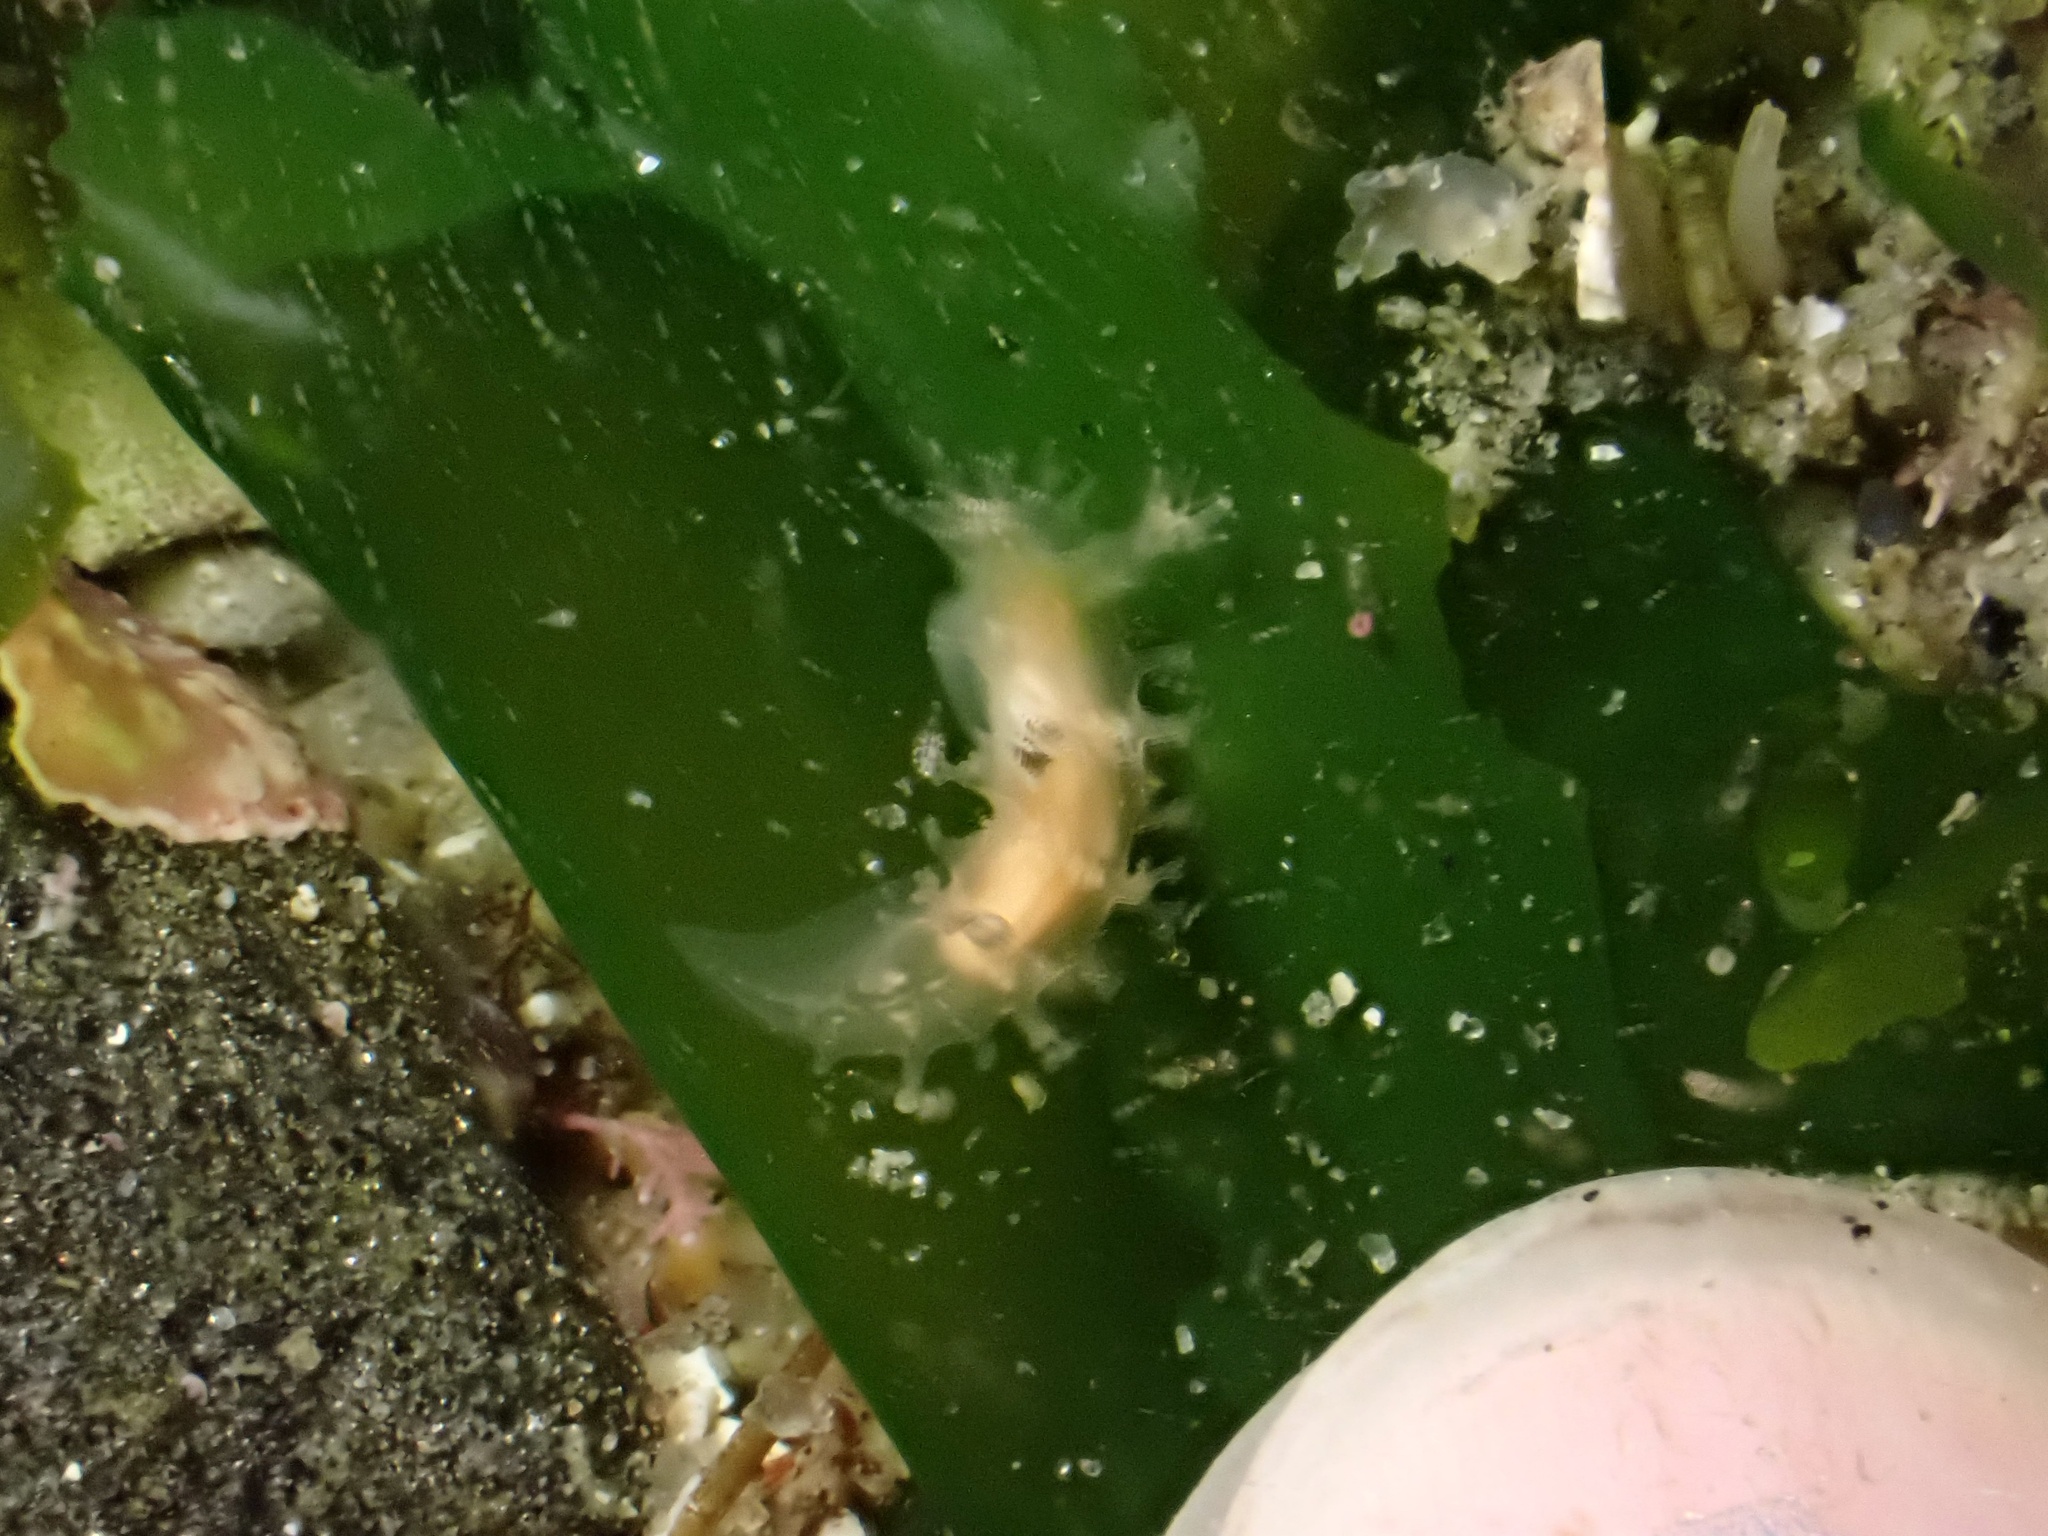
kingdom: Animalia
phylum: Mollusca
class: Gastropoda
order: Nudibranchia
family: Tritoniidae
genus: Tritonicula
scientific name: Tritonicula myrakeenae
